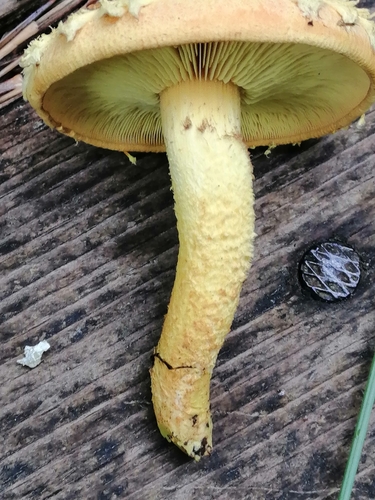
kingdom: Fungi
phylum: Basidiomycota
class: Agaricomycetes
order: Agaricales
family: Strophariaceae
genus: Pholiota
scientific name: Pholiota flammans
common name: Flaming scalycap
